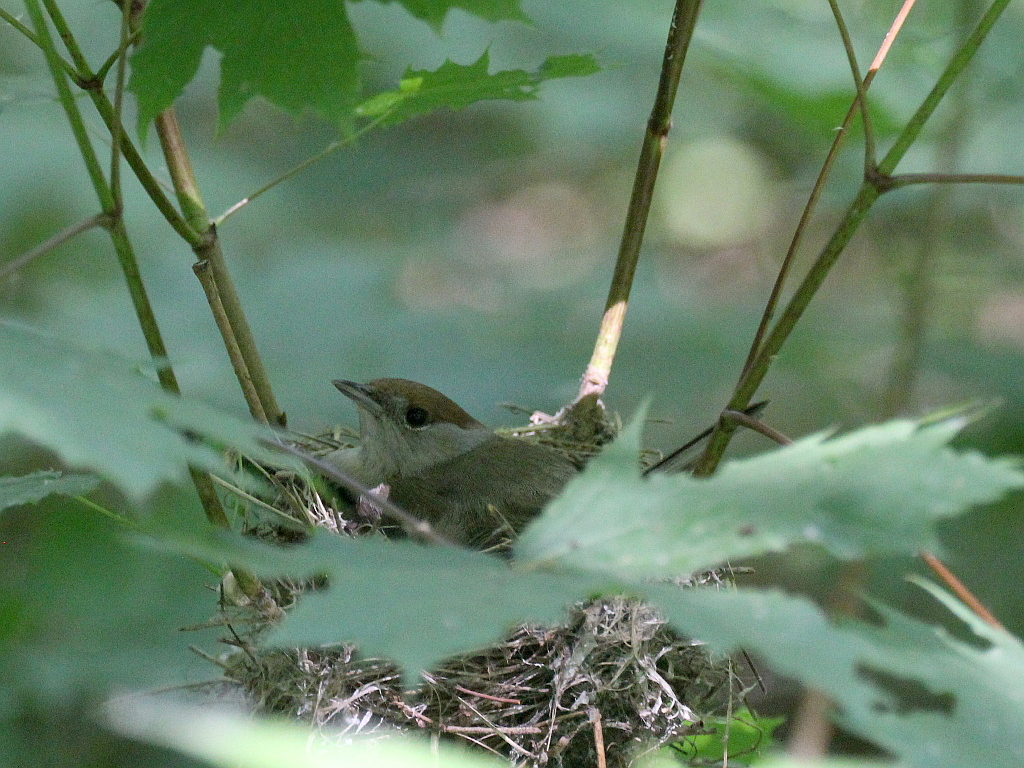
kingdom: Animalia
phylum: Chordata
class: Aves
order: Passeriformes
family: Sylviidae
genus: Sylvia
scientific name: Sylvia atricapilla
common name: Eurasian blackcap
